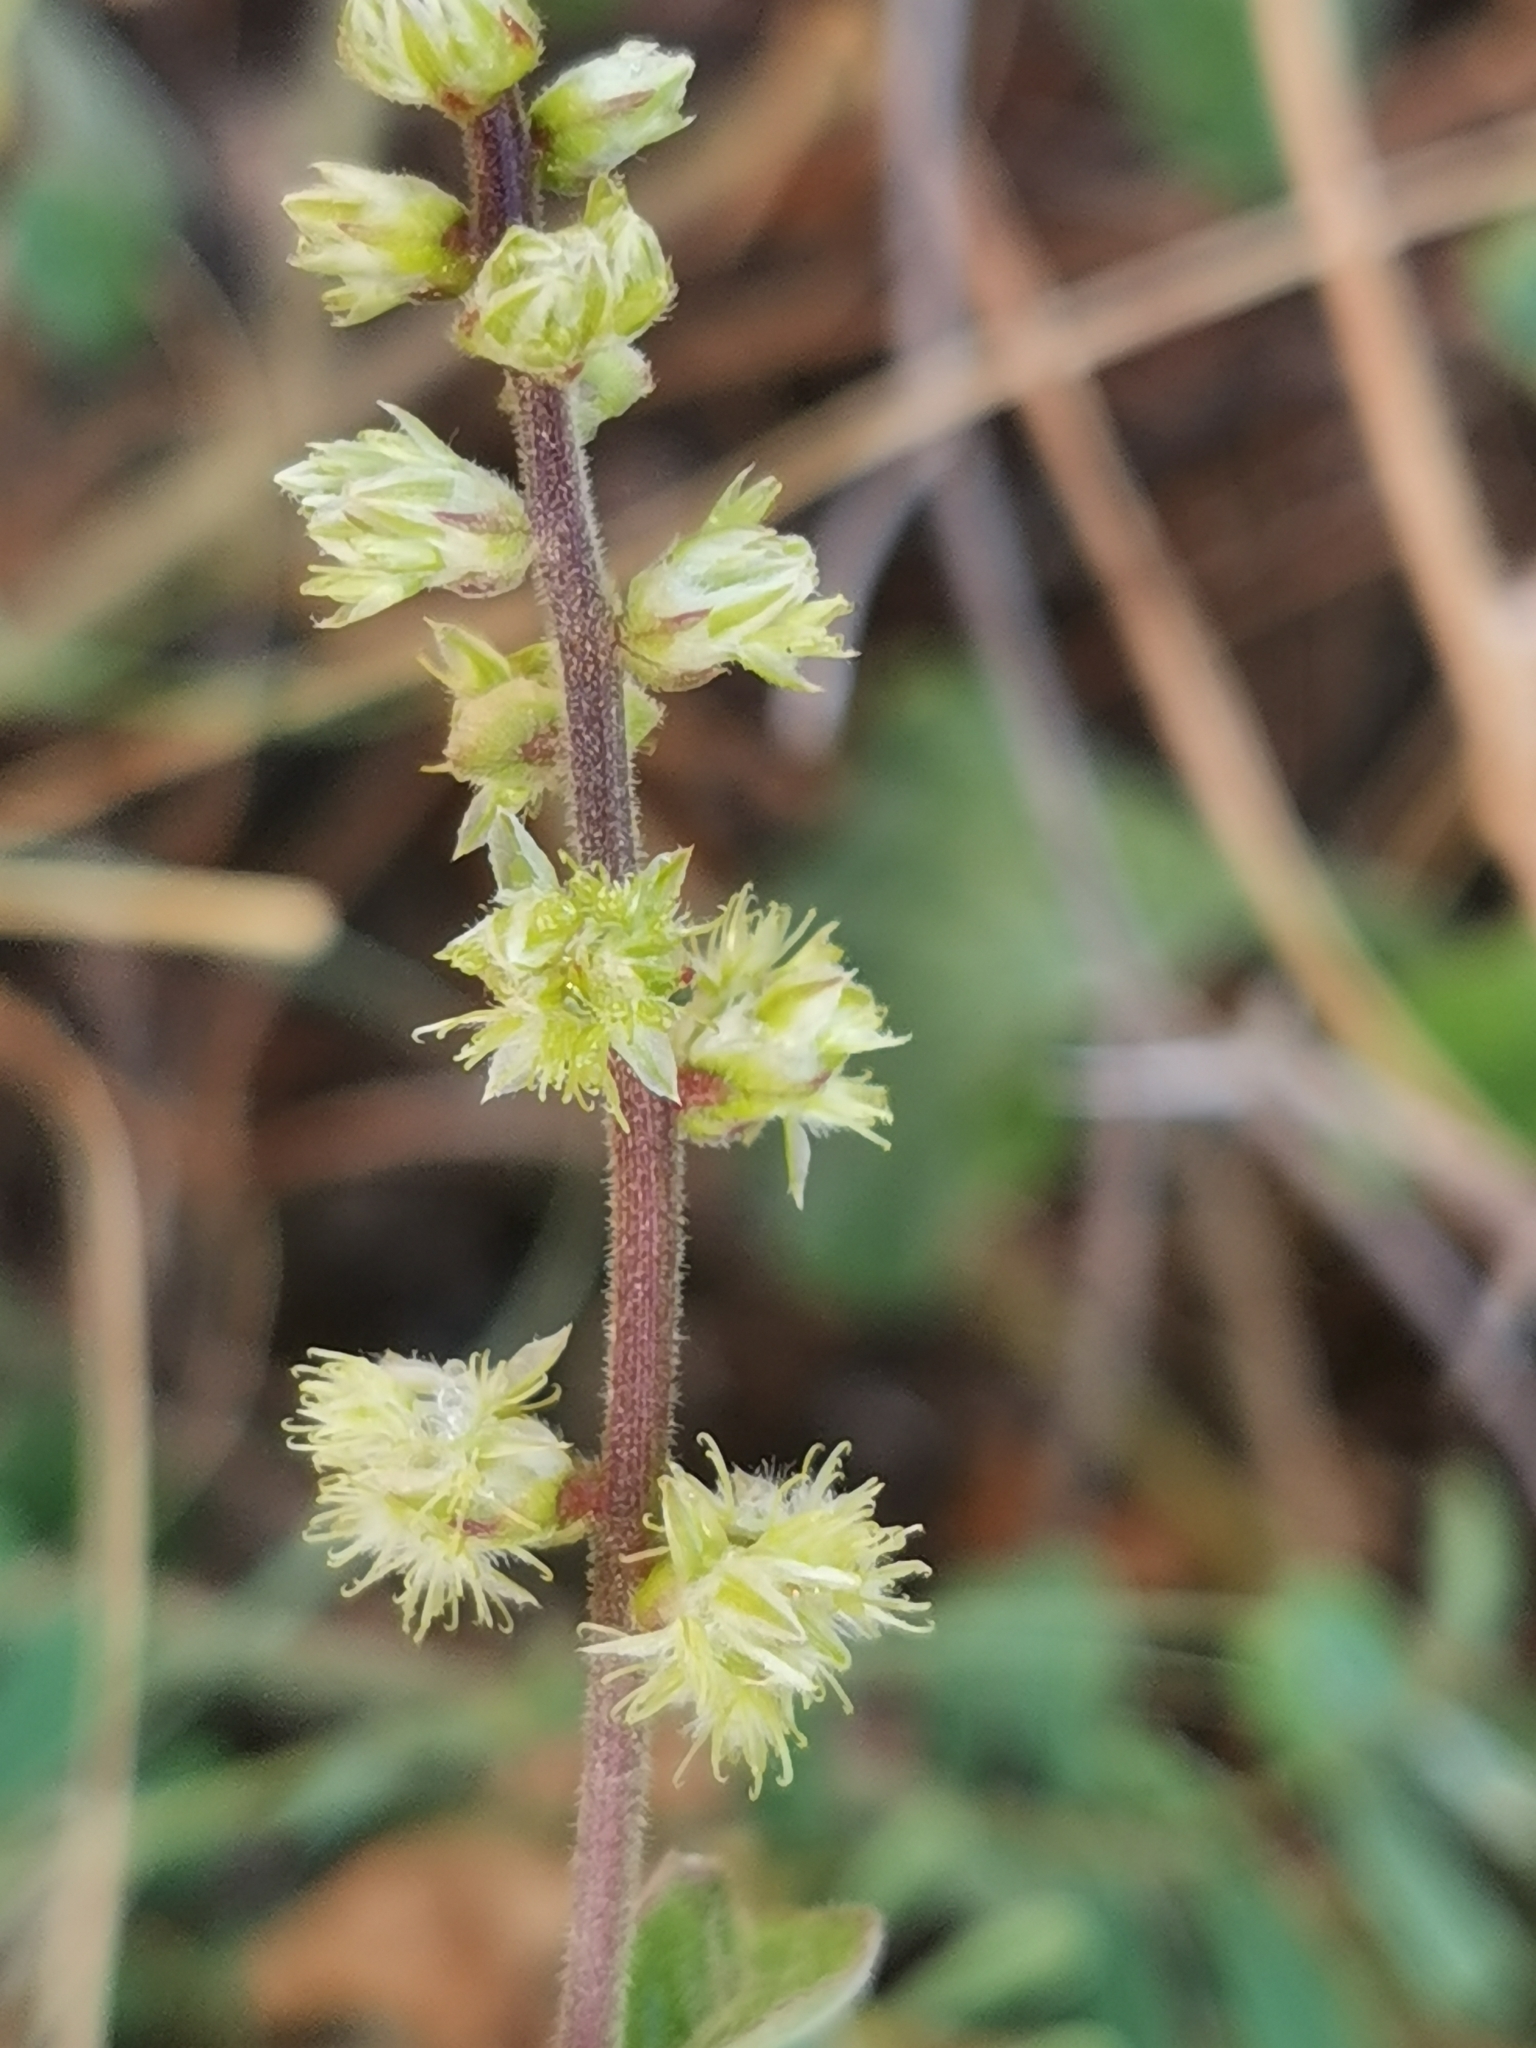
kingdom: Plantae
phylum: Tracheophyta
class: Magnoliopsida
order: Caryophyllales
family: Amaranthaceae
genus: Pupalia
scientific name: Pupalia lappacea
